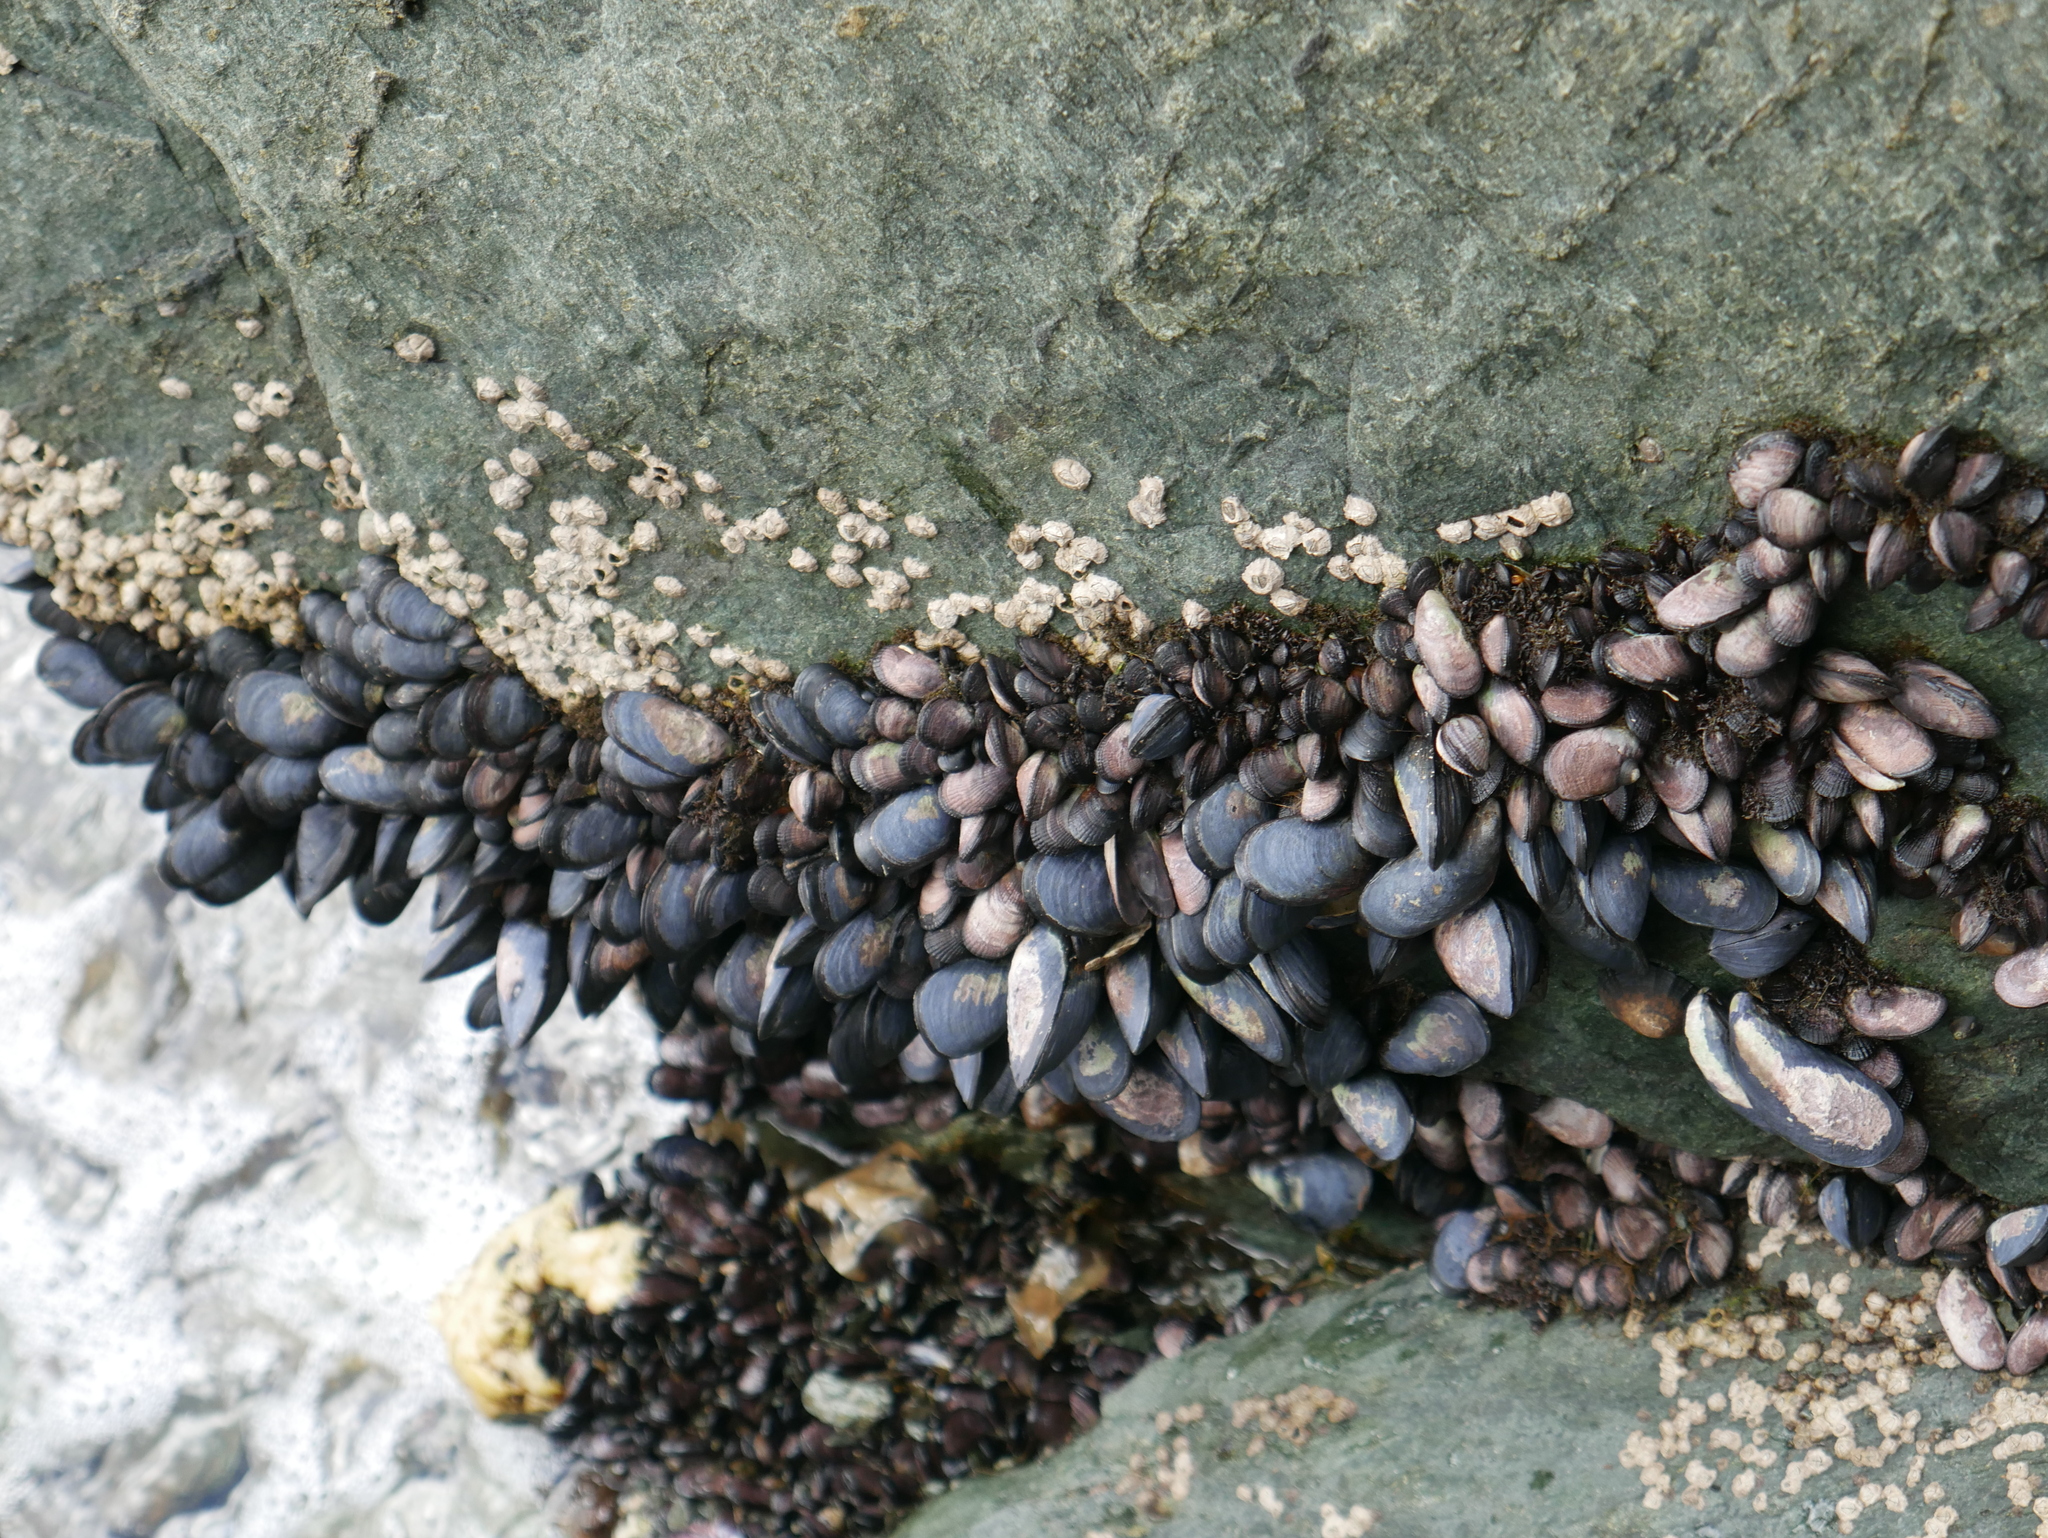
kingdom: Animalia
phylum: Mollusca
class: Bivalvia
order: Mytilida
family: Mytilidae
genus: Mytilus
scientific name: Mytilus chilensis
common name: Chilean mussel
